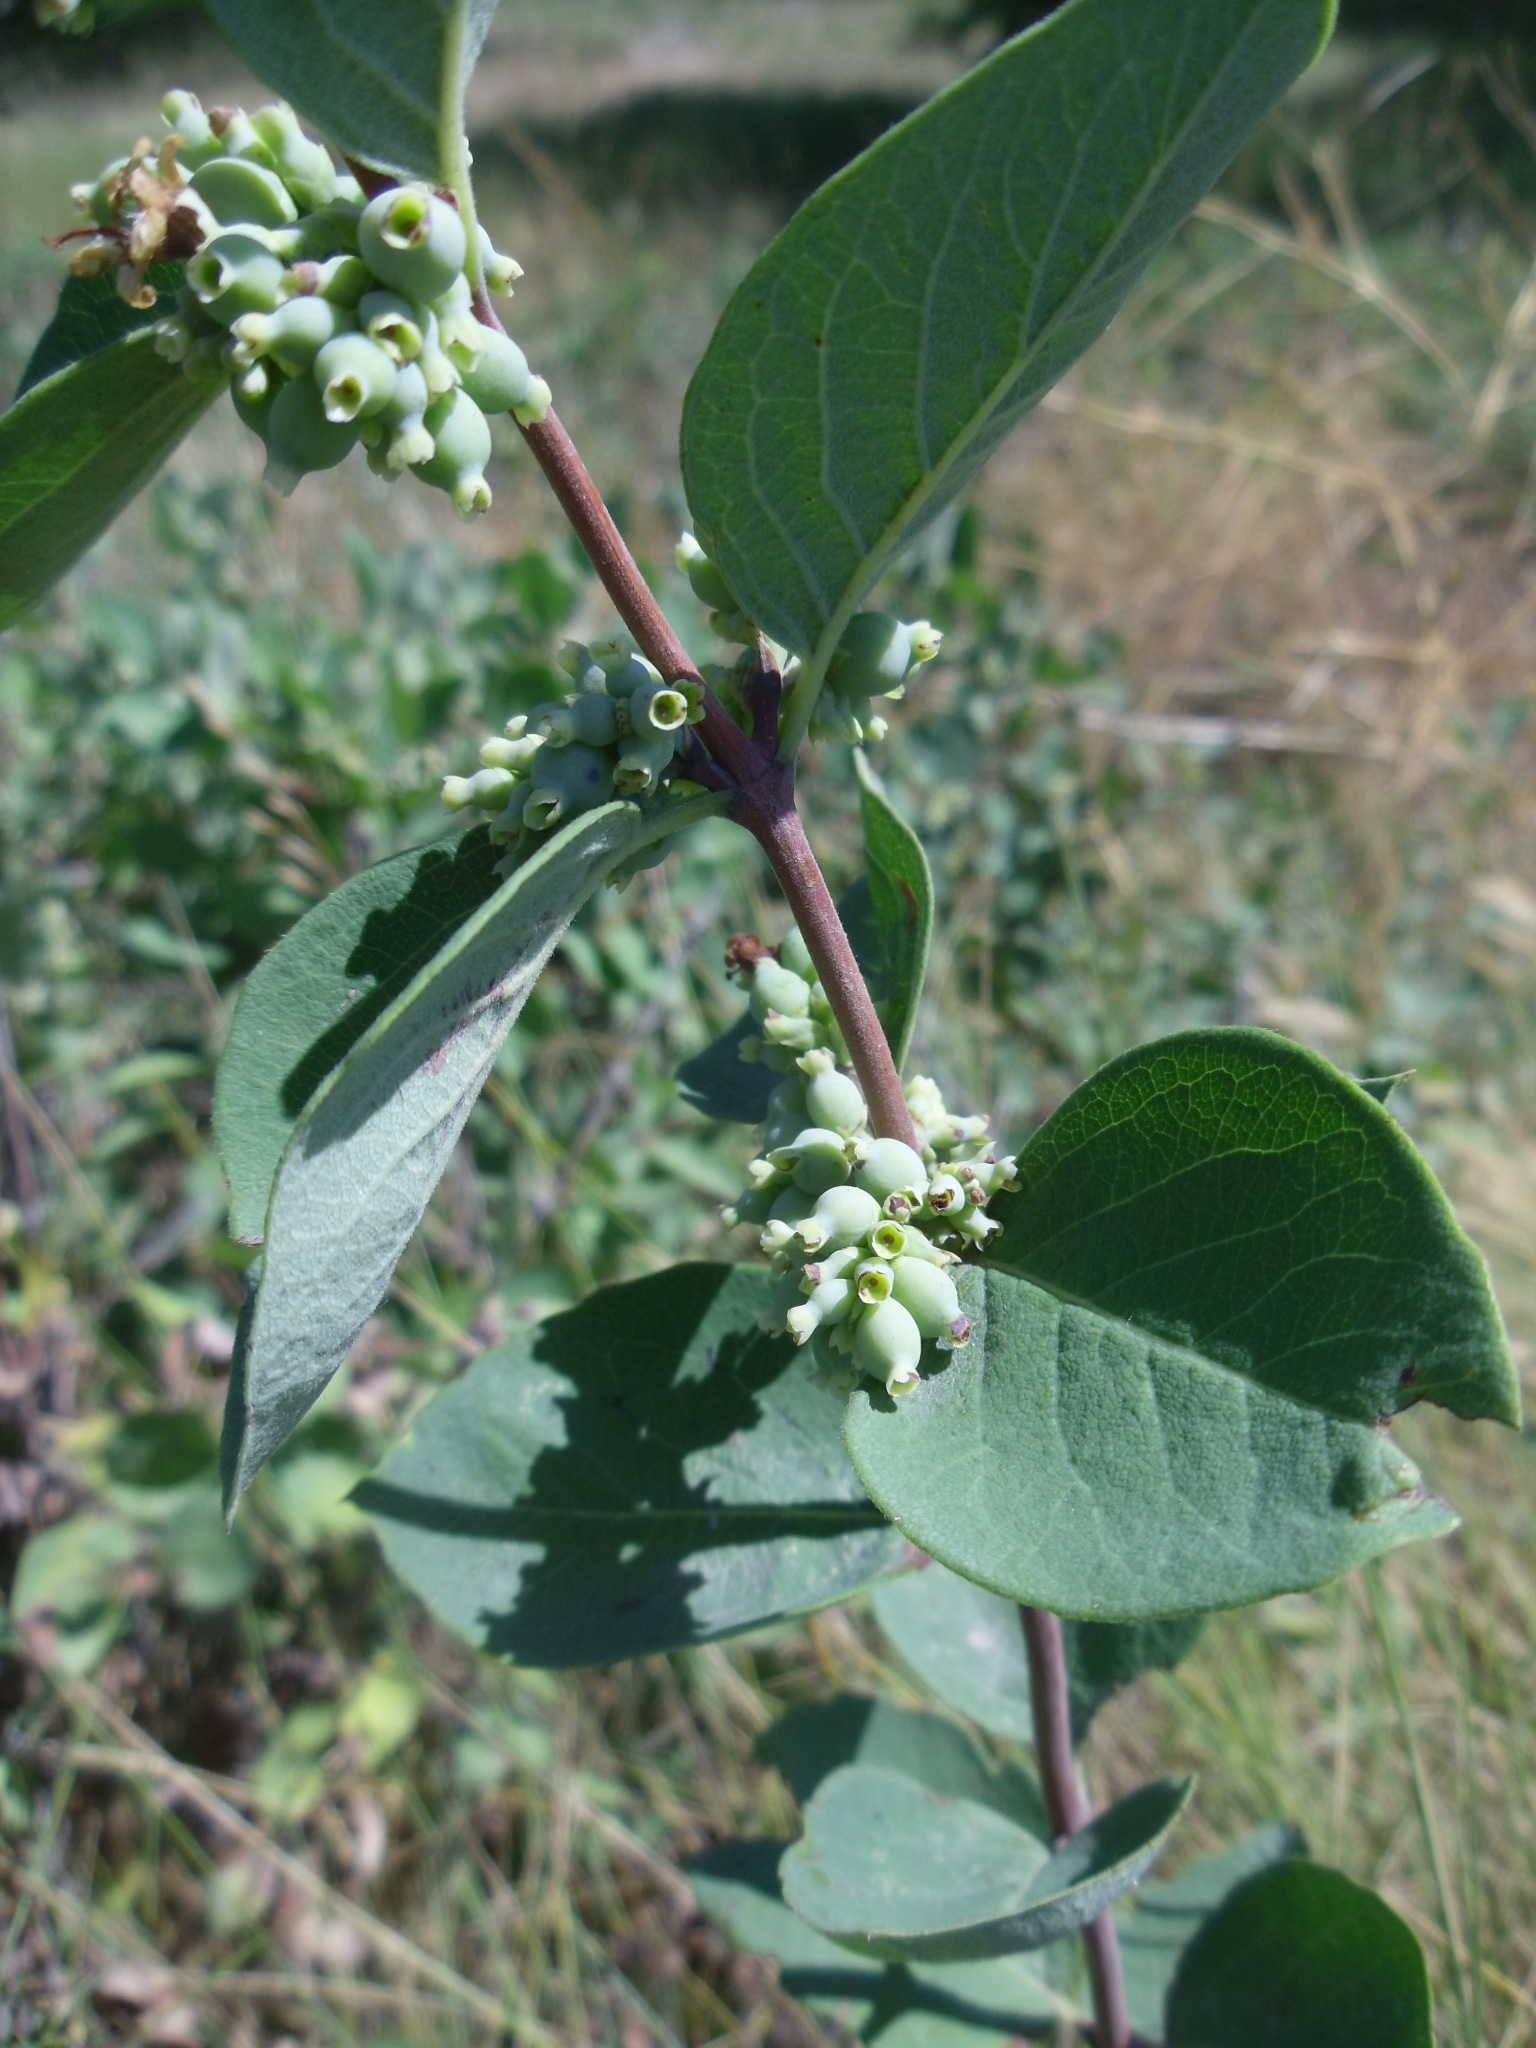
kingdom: Plantae
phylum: Tracheophyta
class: Magnoliopsida
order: Dipsacales
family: Caprifoliaceae
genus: Symphoricarpos
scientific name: Symphoricarpos occidentalis
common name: Wolfberry
